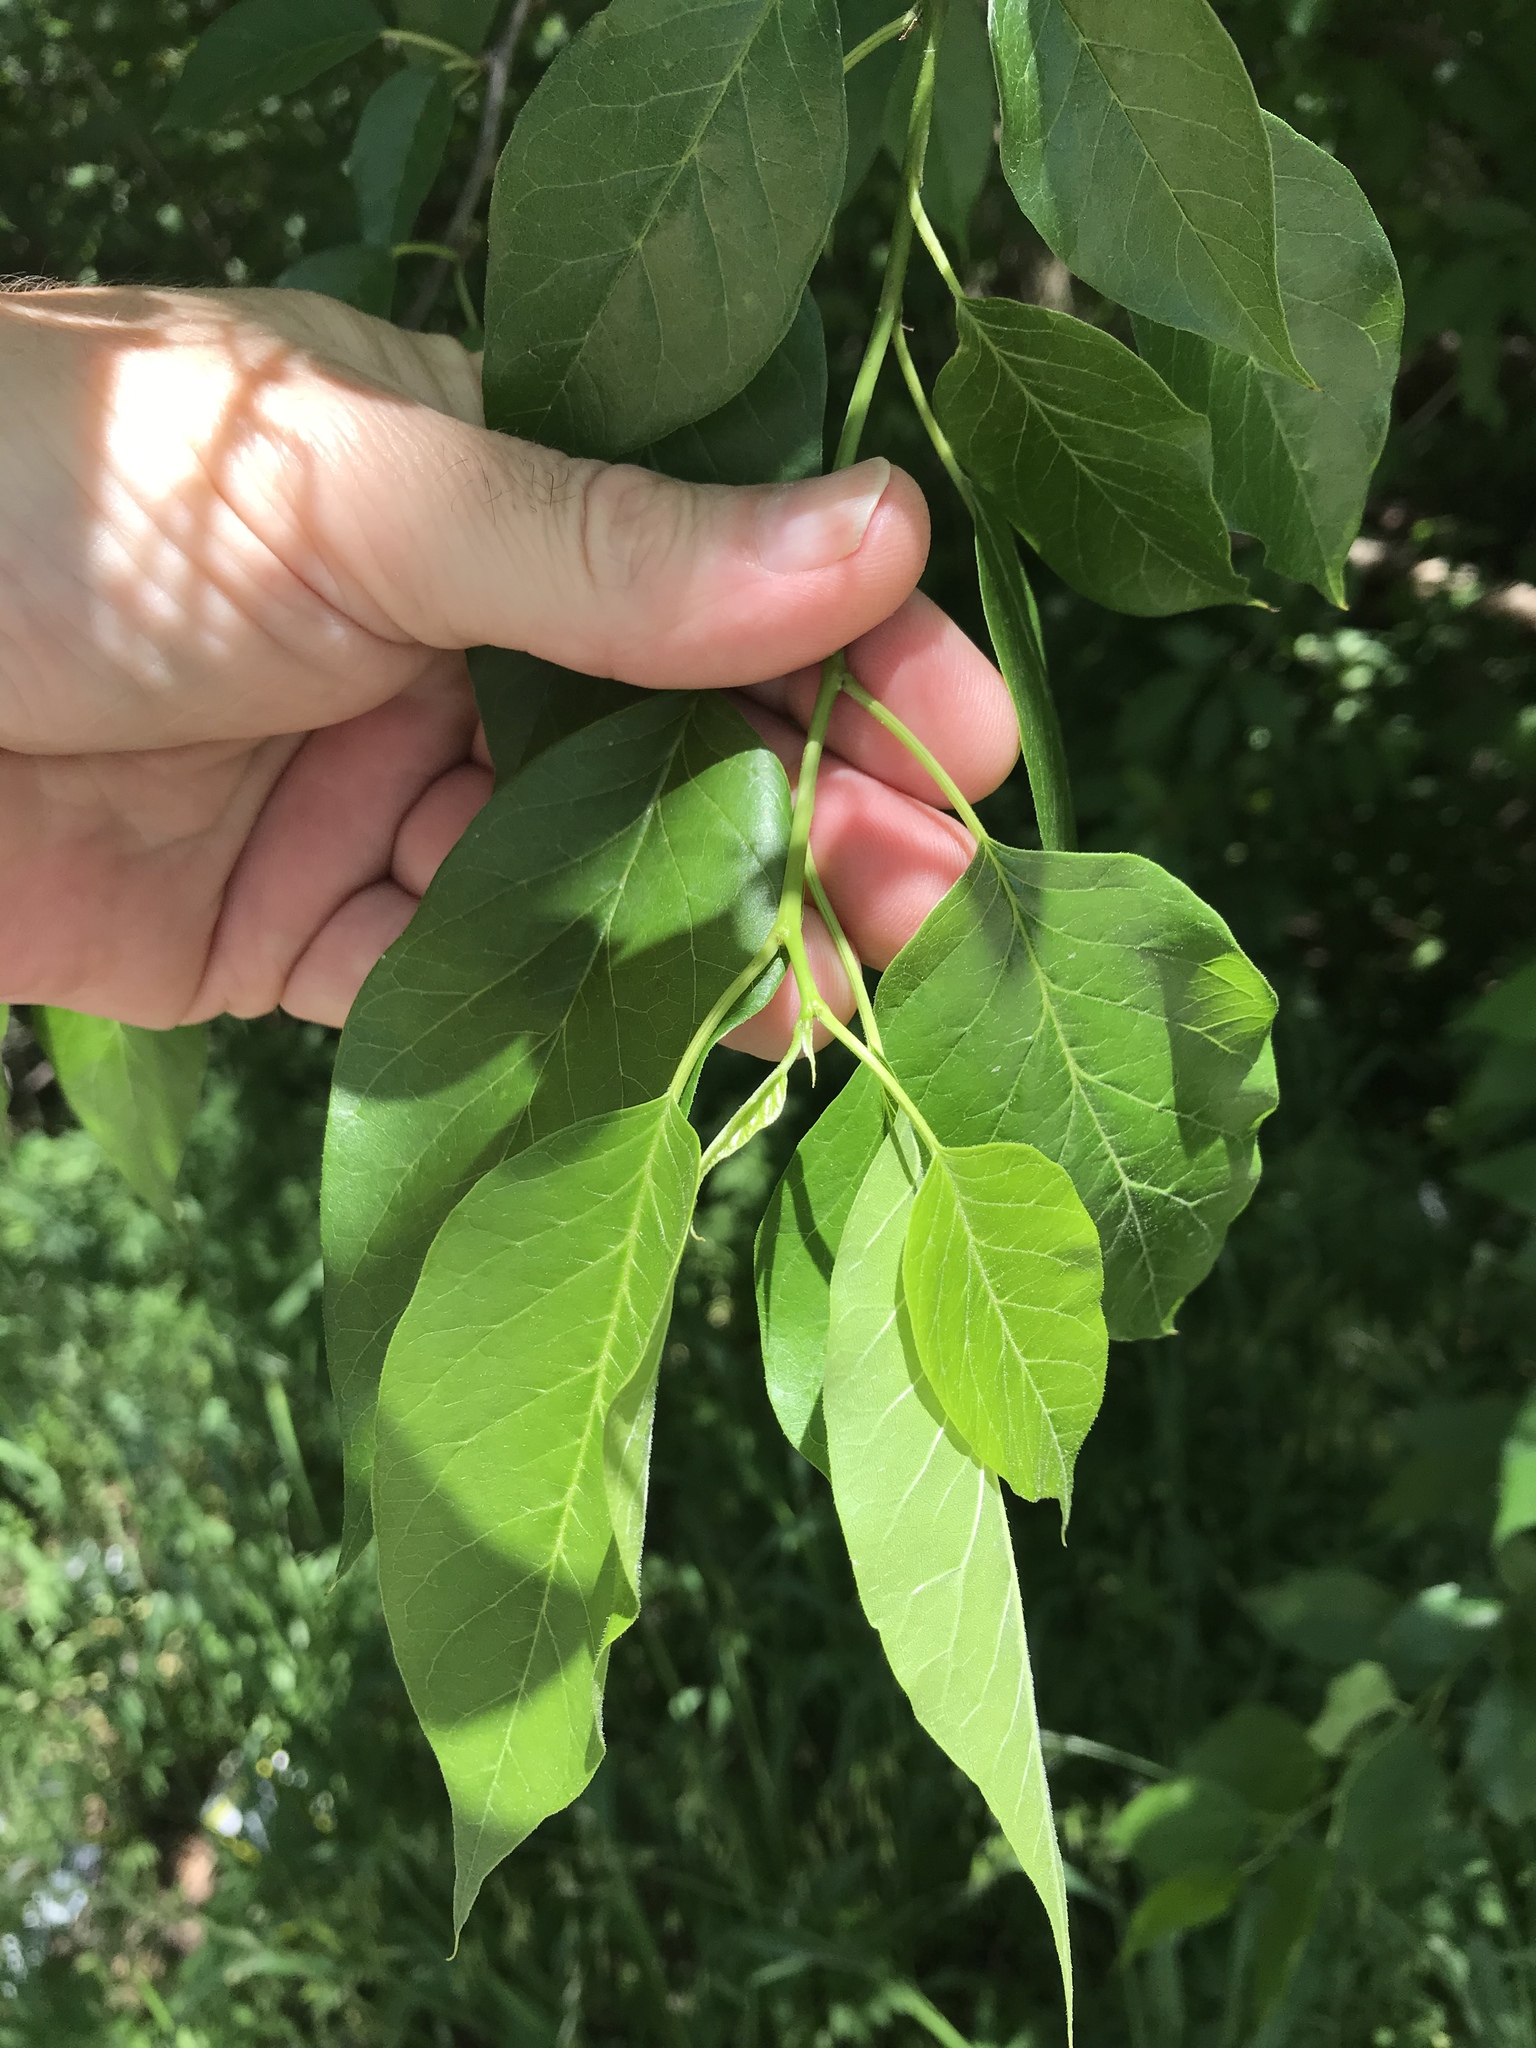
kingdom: Plantae
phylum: Tracheophyta
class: Magnoliopsida
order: Rosales
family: Moraceae
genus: Maclura
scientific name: Maclura pomifera
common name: Osage-orange
